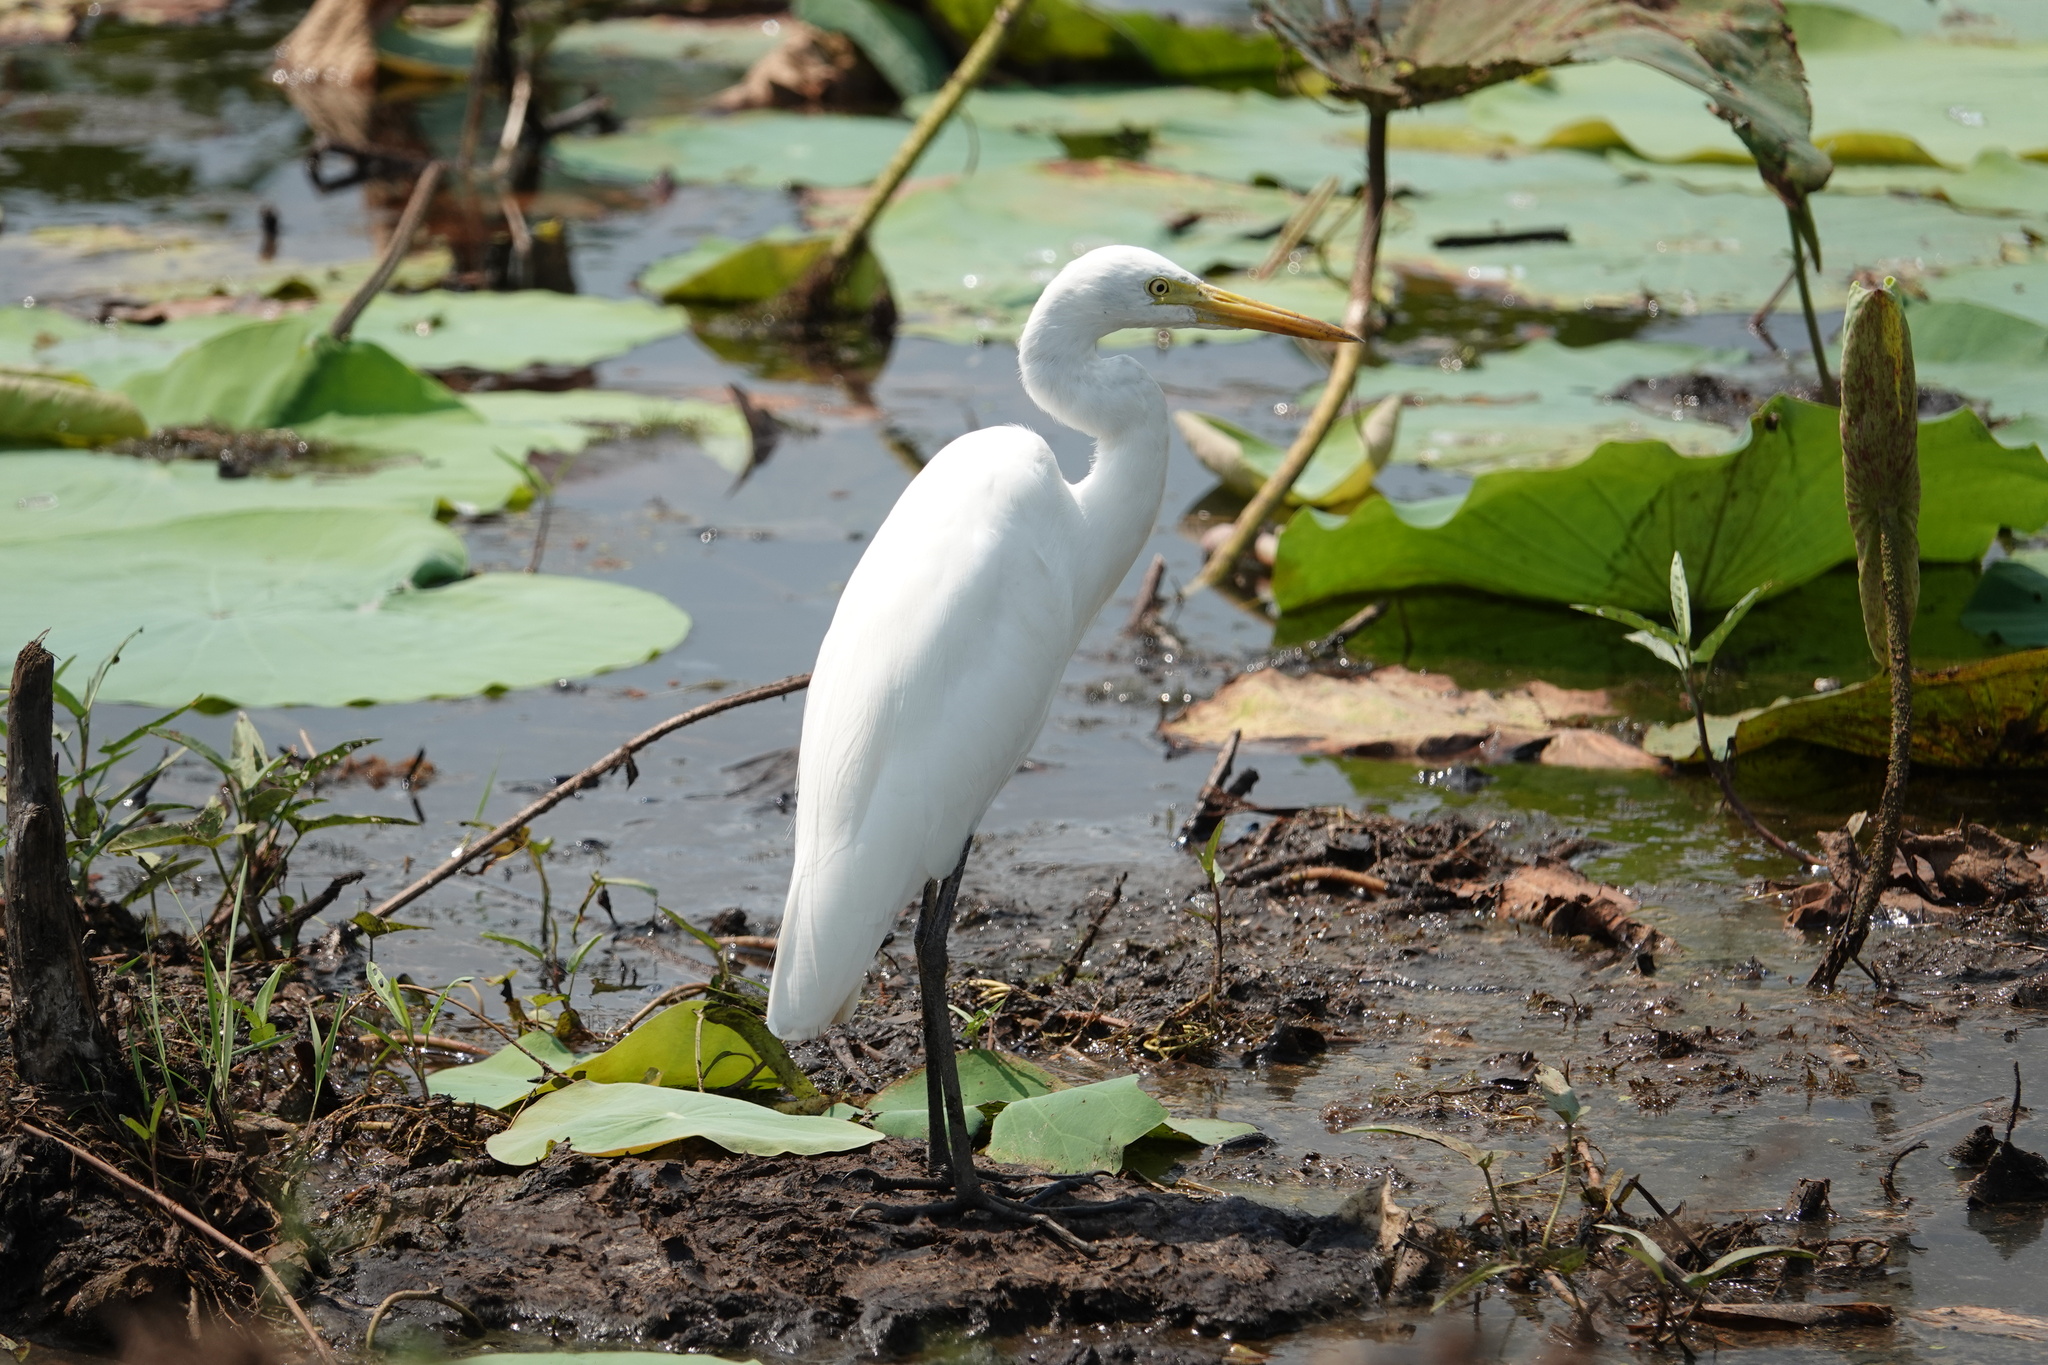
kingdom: Animalia
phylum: Chordata
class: Aves
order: Pelecaniformes
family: Ardeidae
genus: Egretta
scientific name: Egretta intermedia
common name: Intermediate egret
